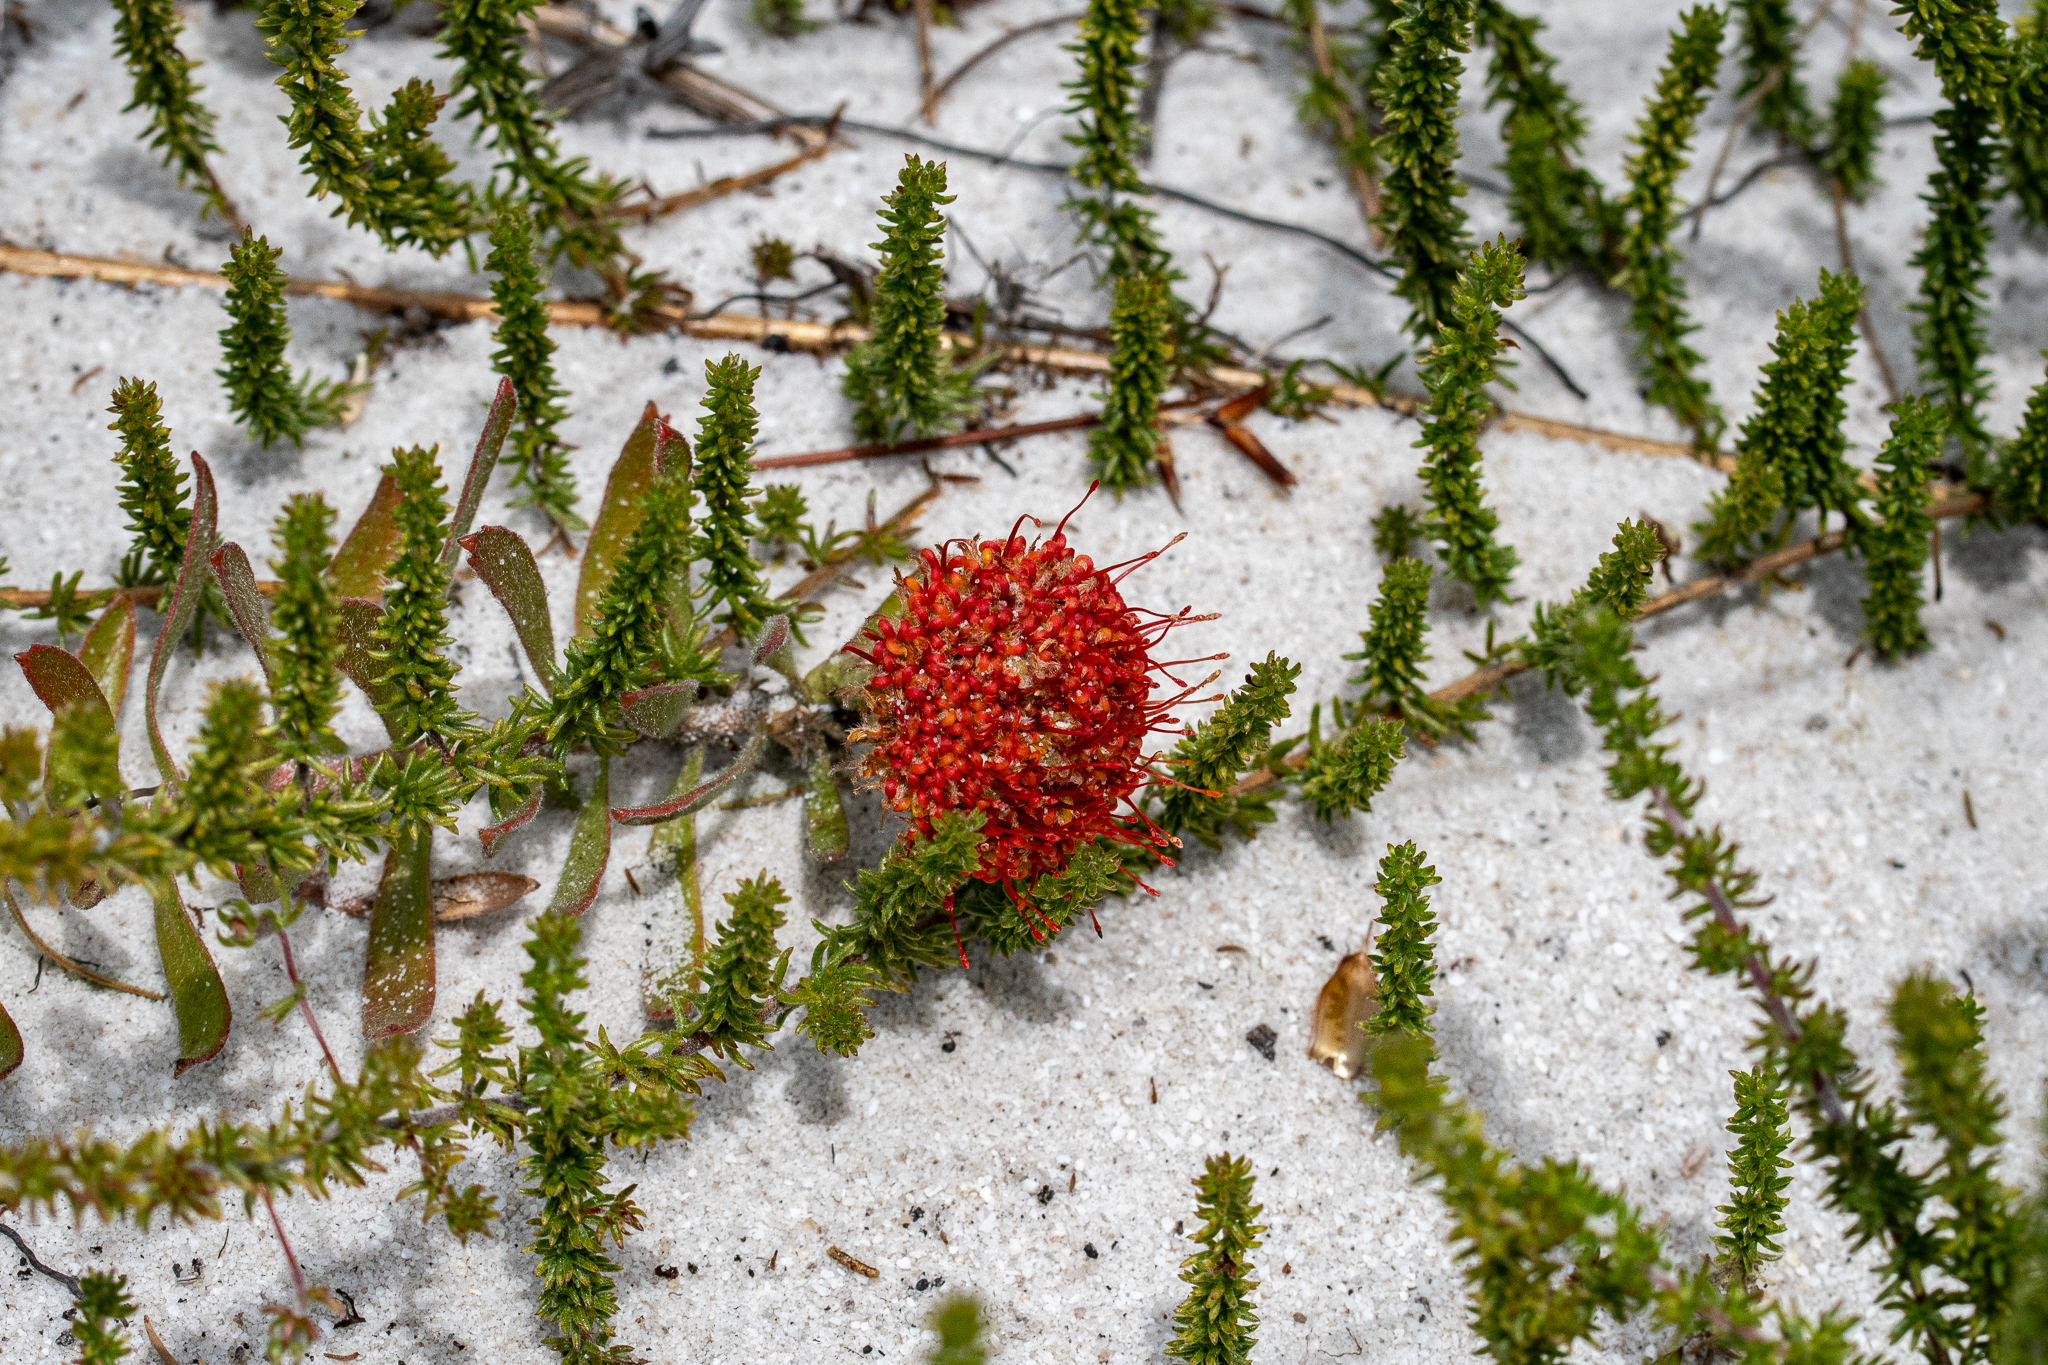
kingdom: Plantae
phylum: Tracheophyta
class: Magnoliopsida
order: Proteales
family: Proteaceae
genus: Leucospermum
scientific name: Leucospermum prostratum
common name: Yellow-trailing pincushion
